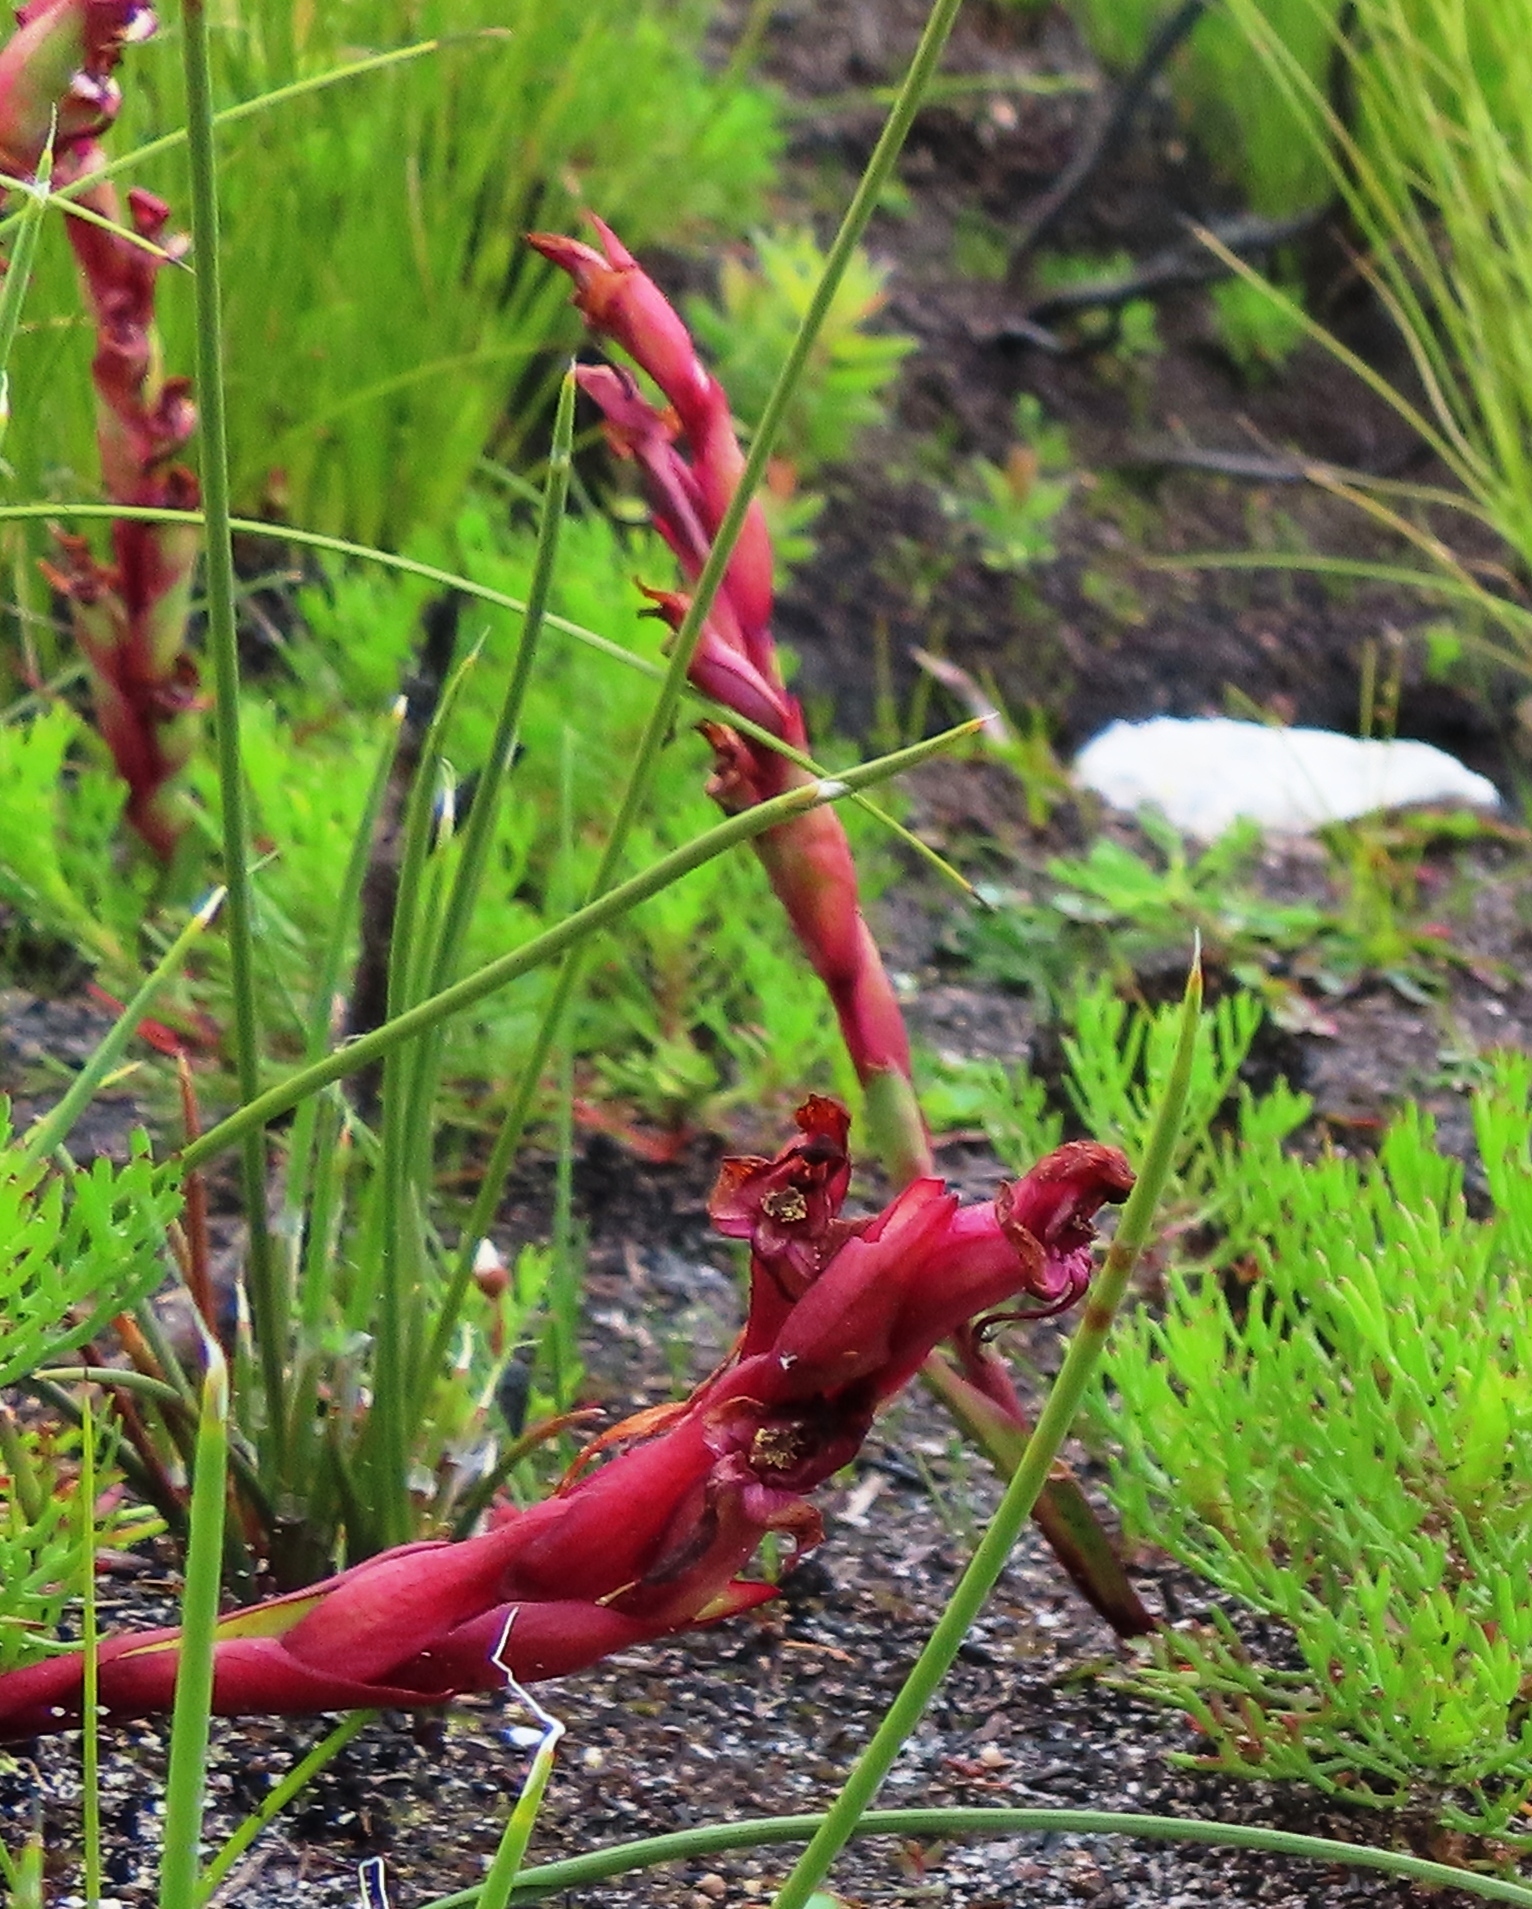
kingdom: Plantae
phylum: Tracheophyta
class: Liliopsida
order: Asparagales
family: Orchidaceae
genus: Disa
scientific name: Disa ophrydea
